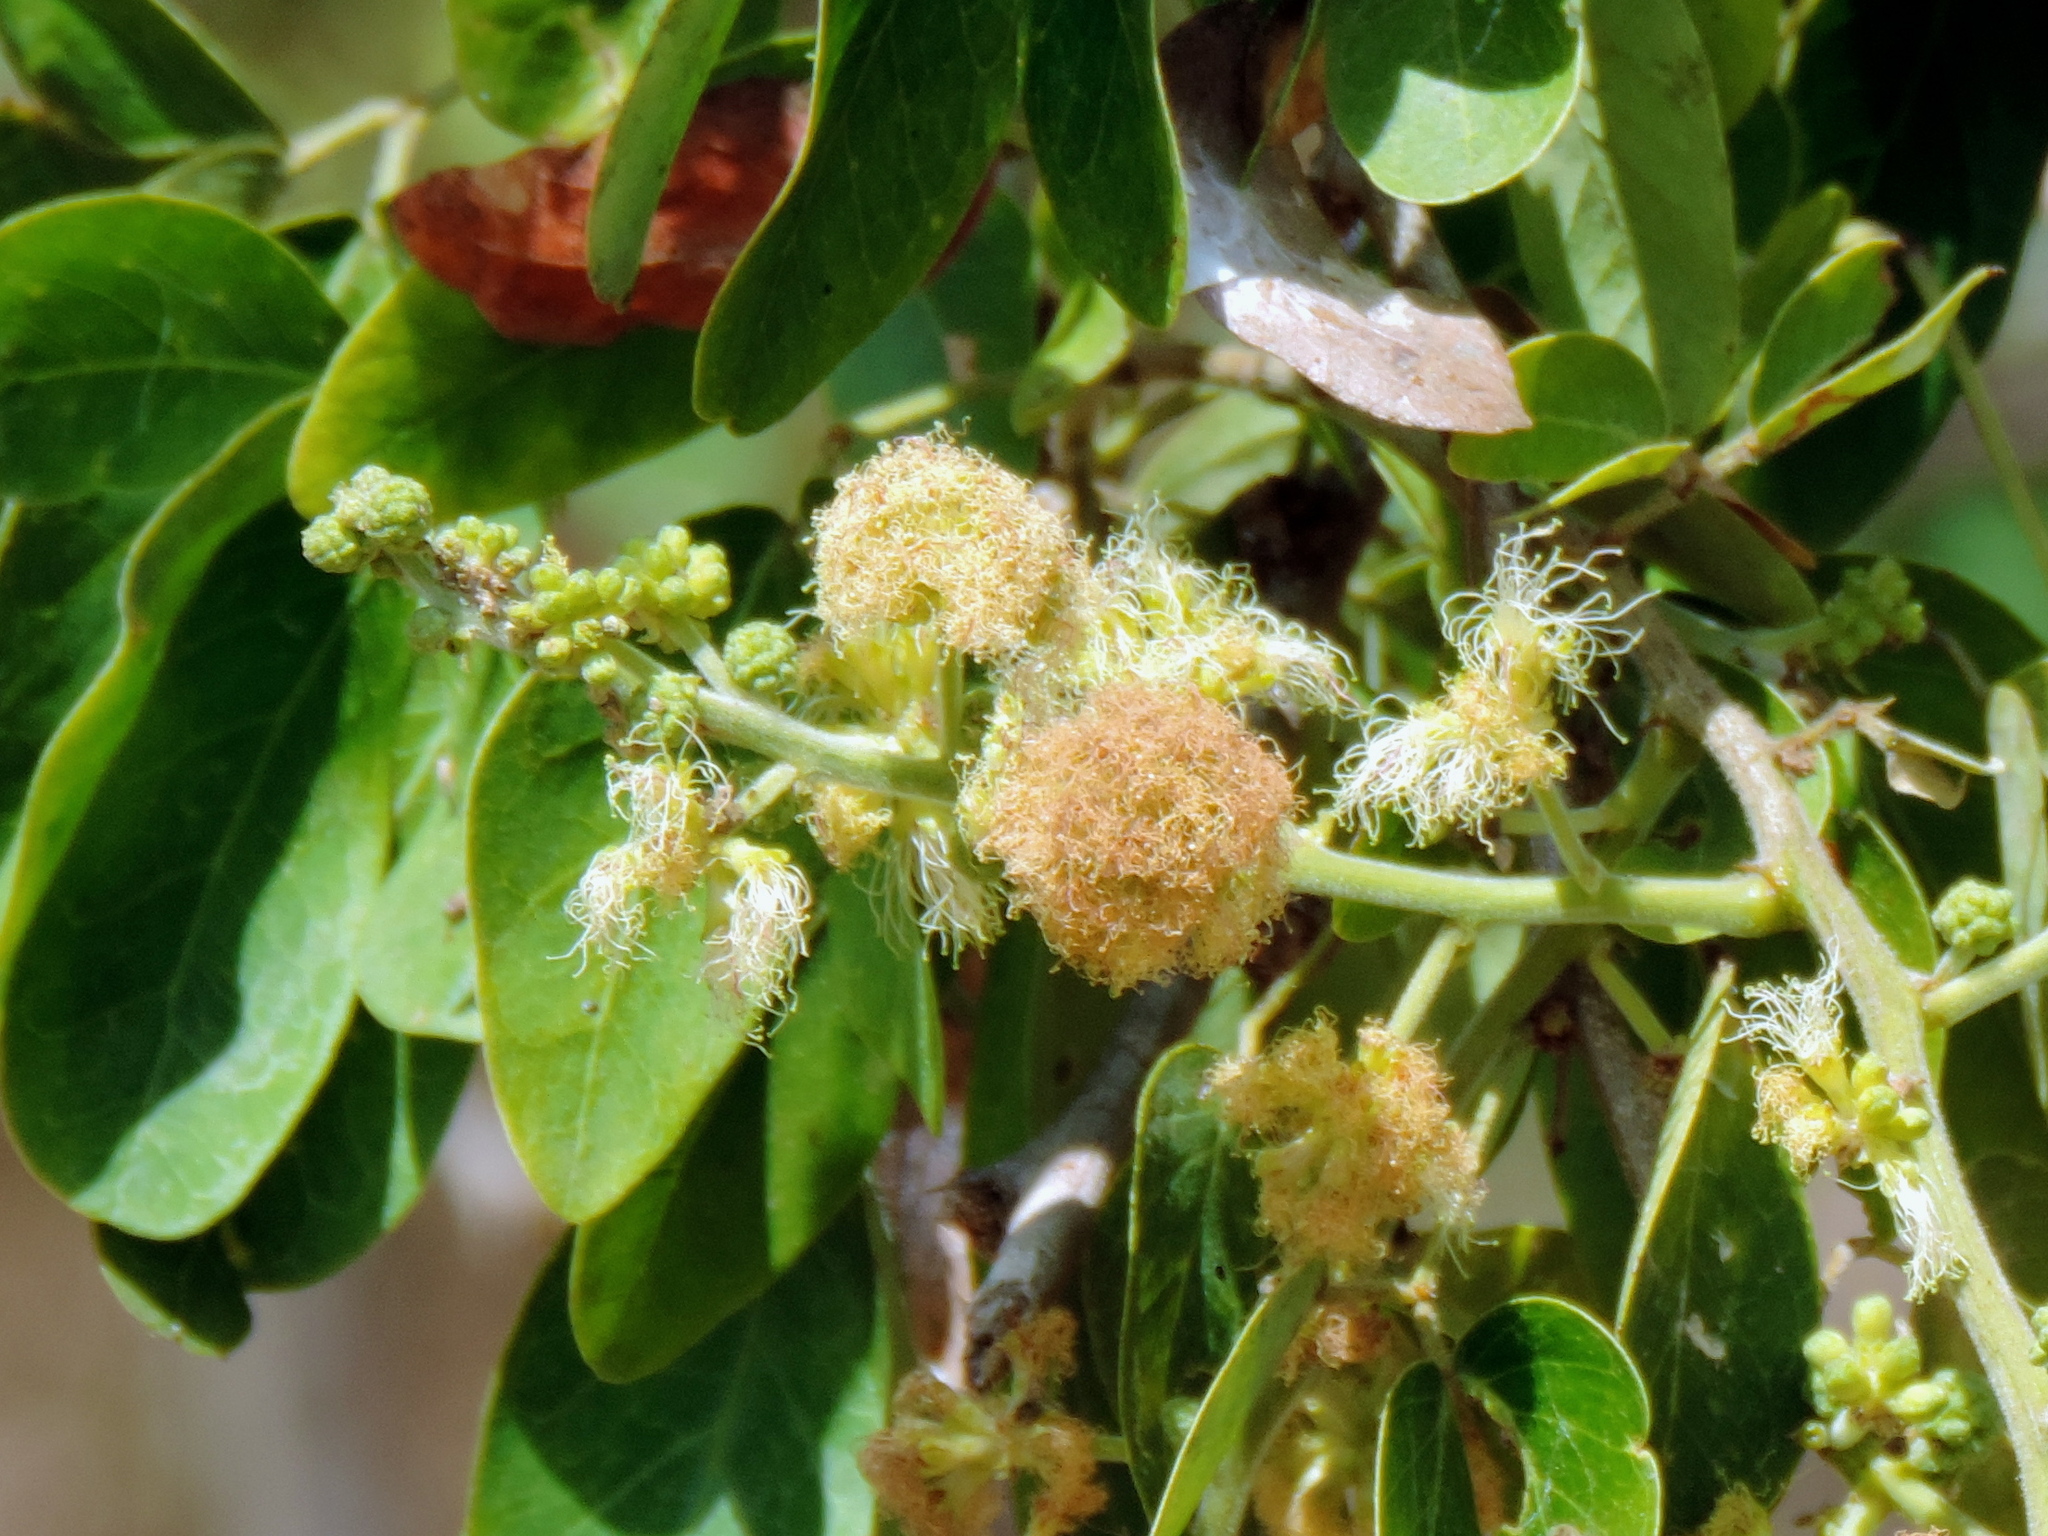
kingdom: Plantae
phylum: Tracheophyta
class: Magnoliopsida
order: Fabales
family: Fabaceae
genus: Pithecellobium
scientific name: Pithecellobium dulce
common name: Monkeypod
